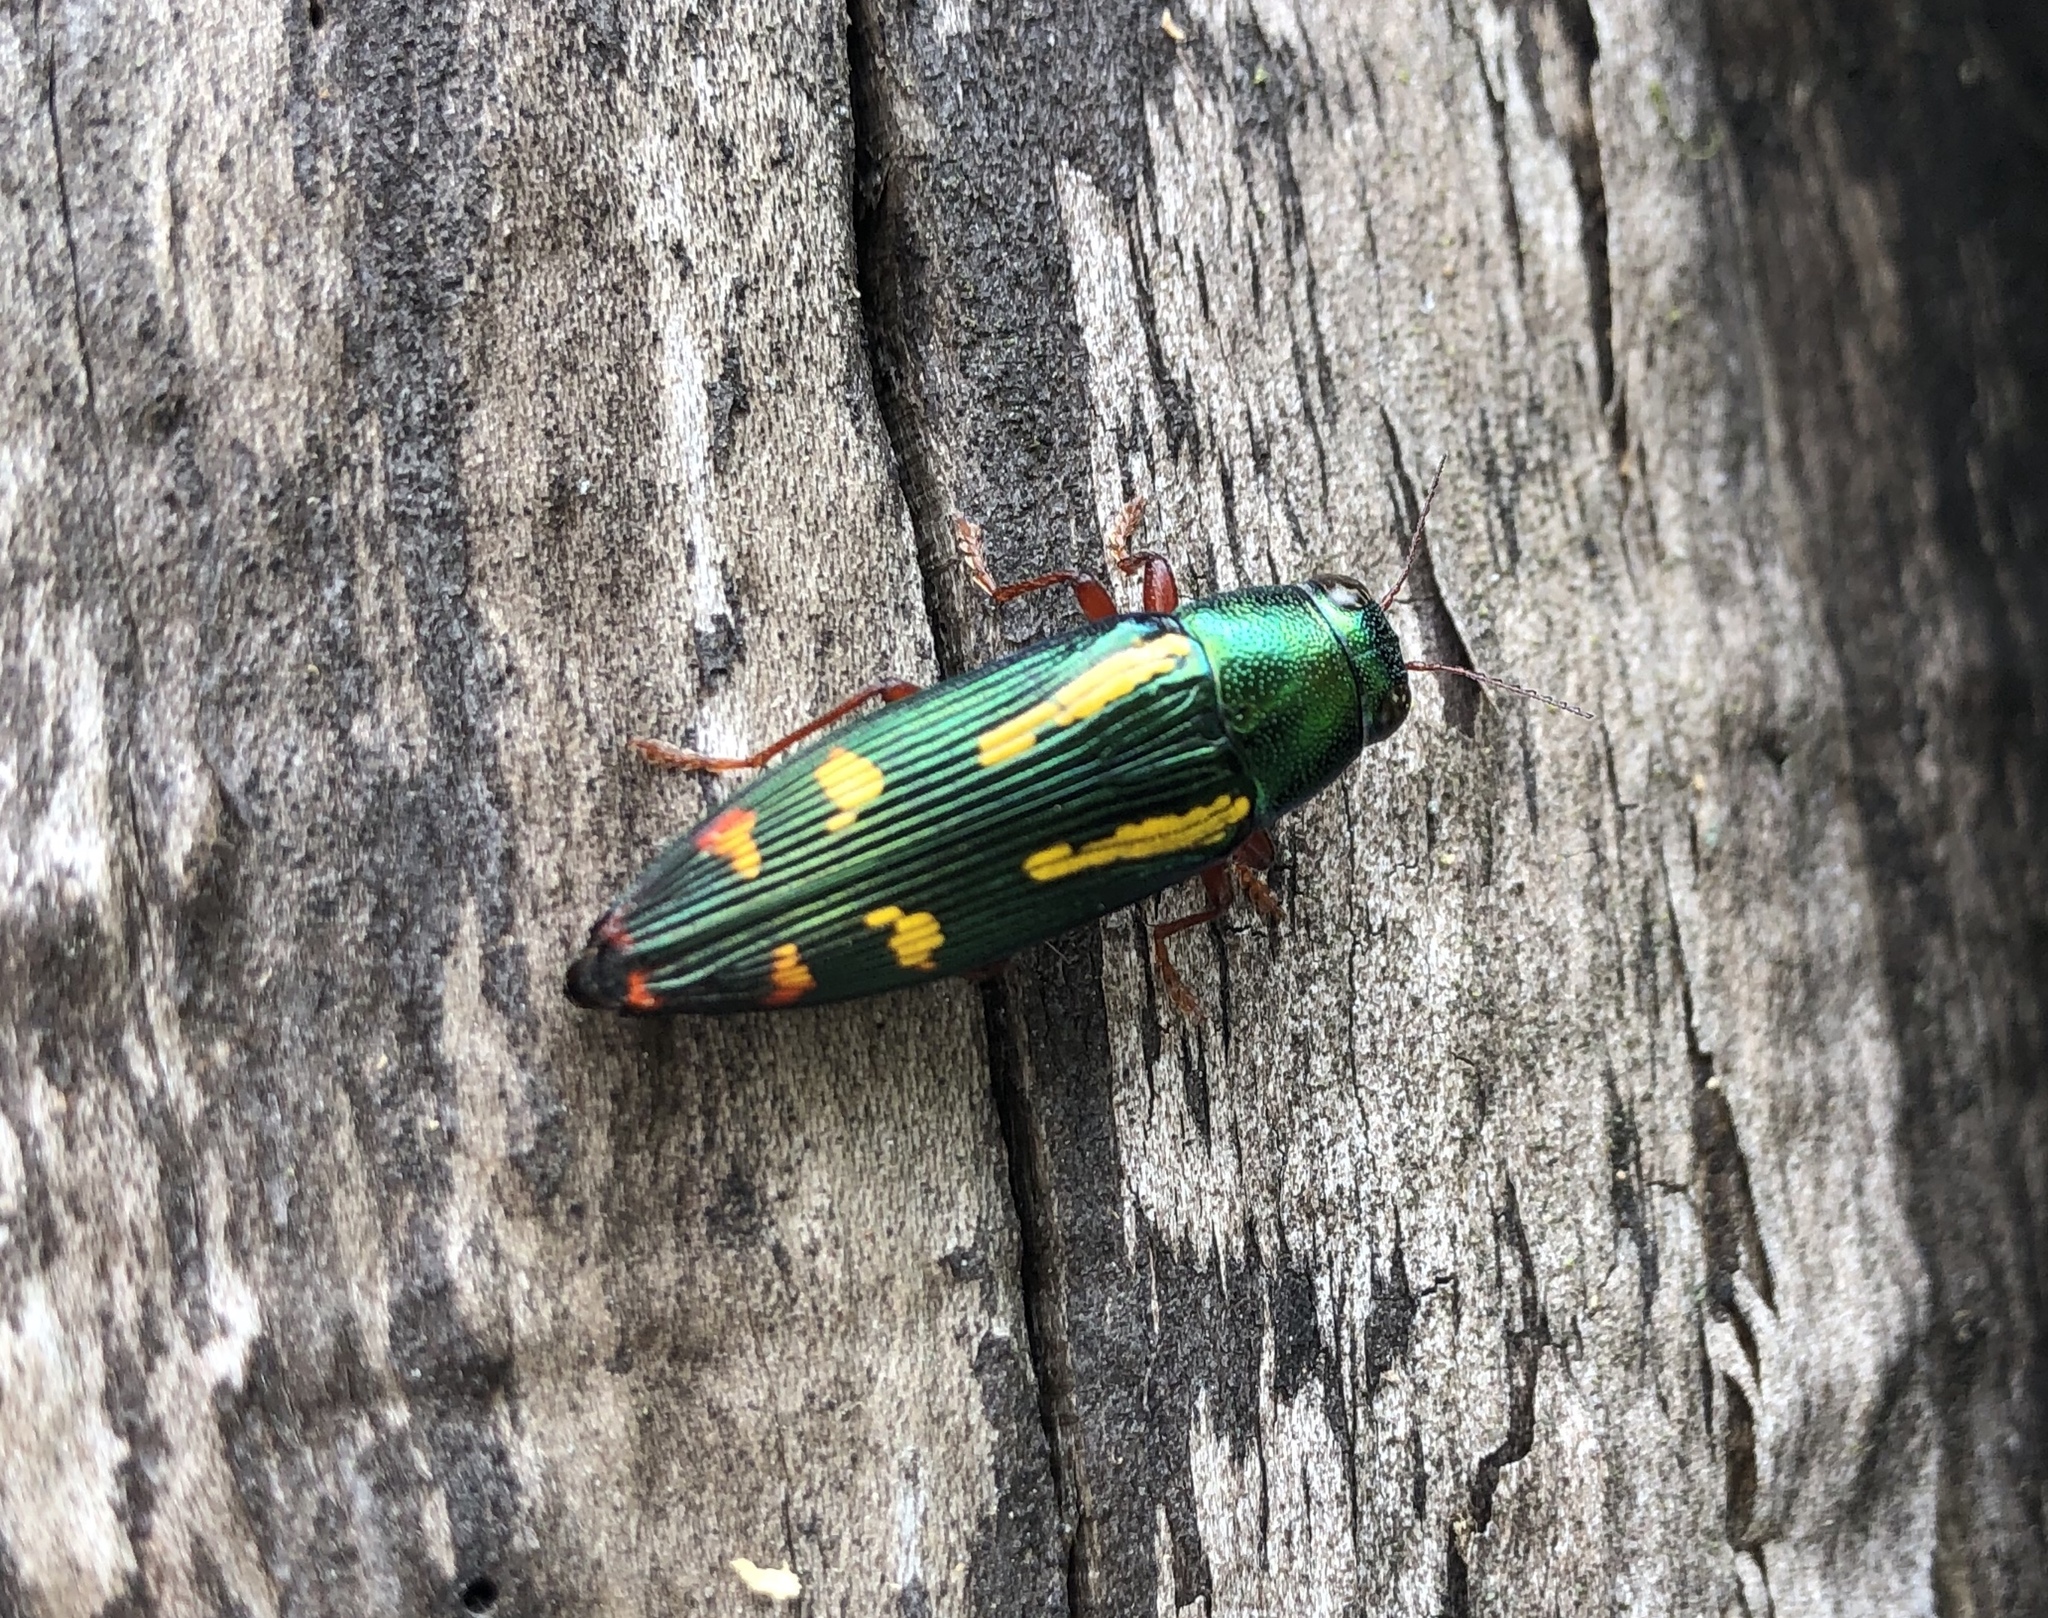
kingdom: Animalia
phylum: Arthropoda
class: Insecta
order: Coleoptera
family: Buprestidae
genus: Buprestis
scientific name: Buprestis rufipes
